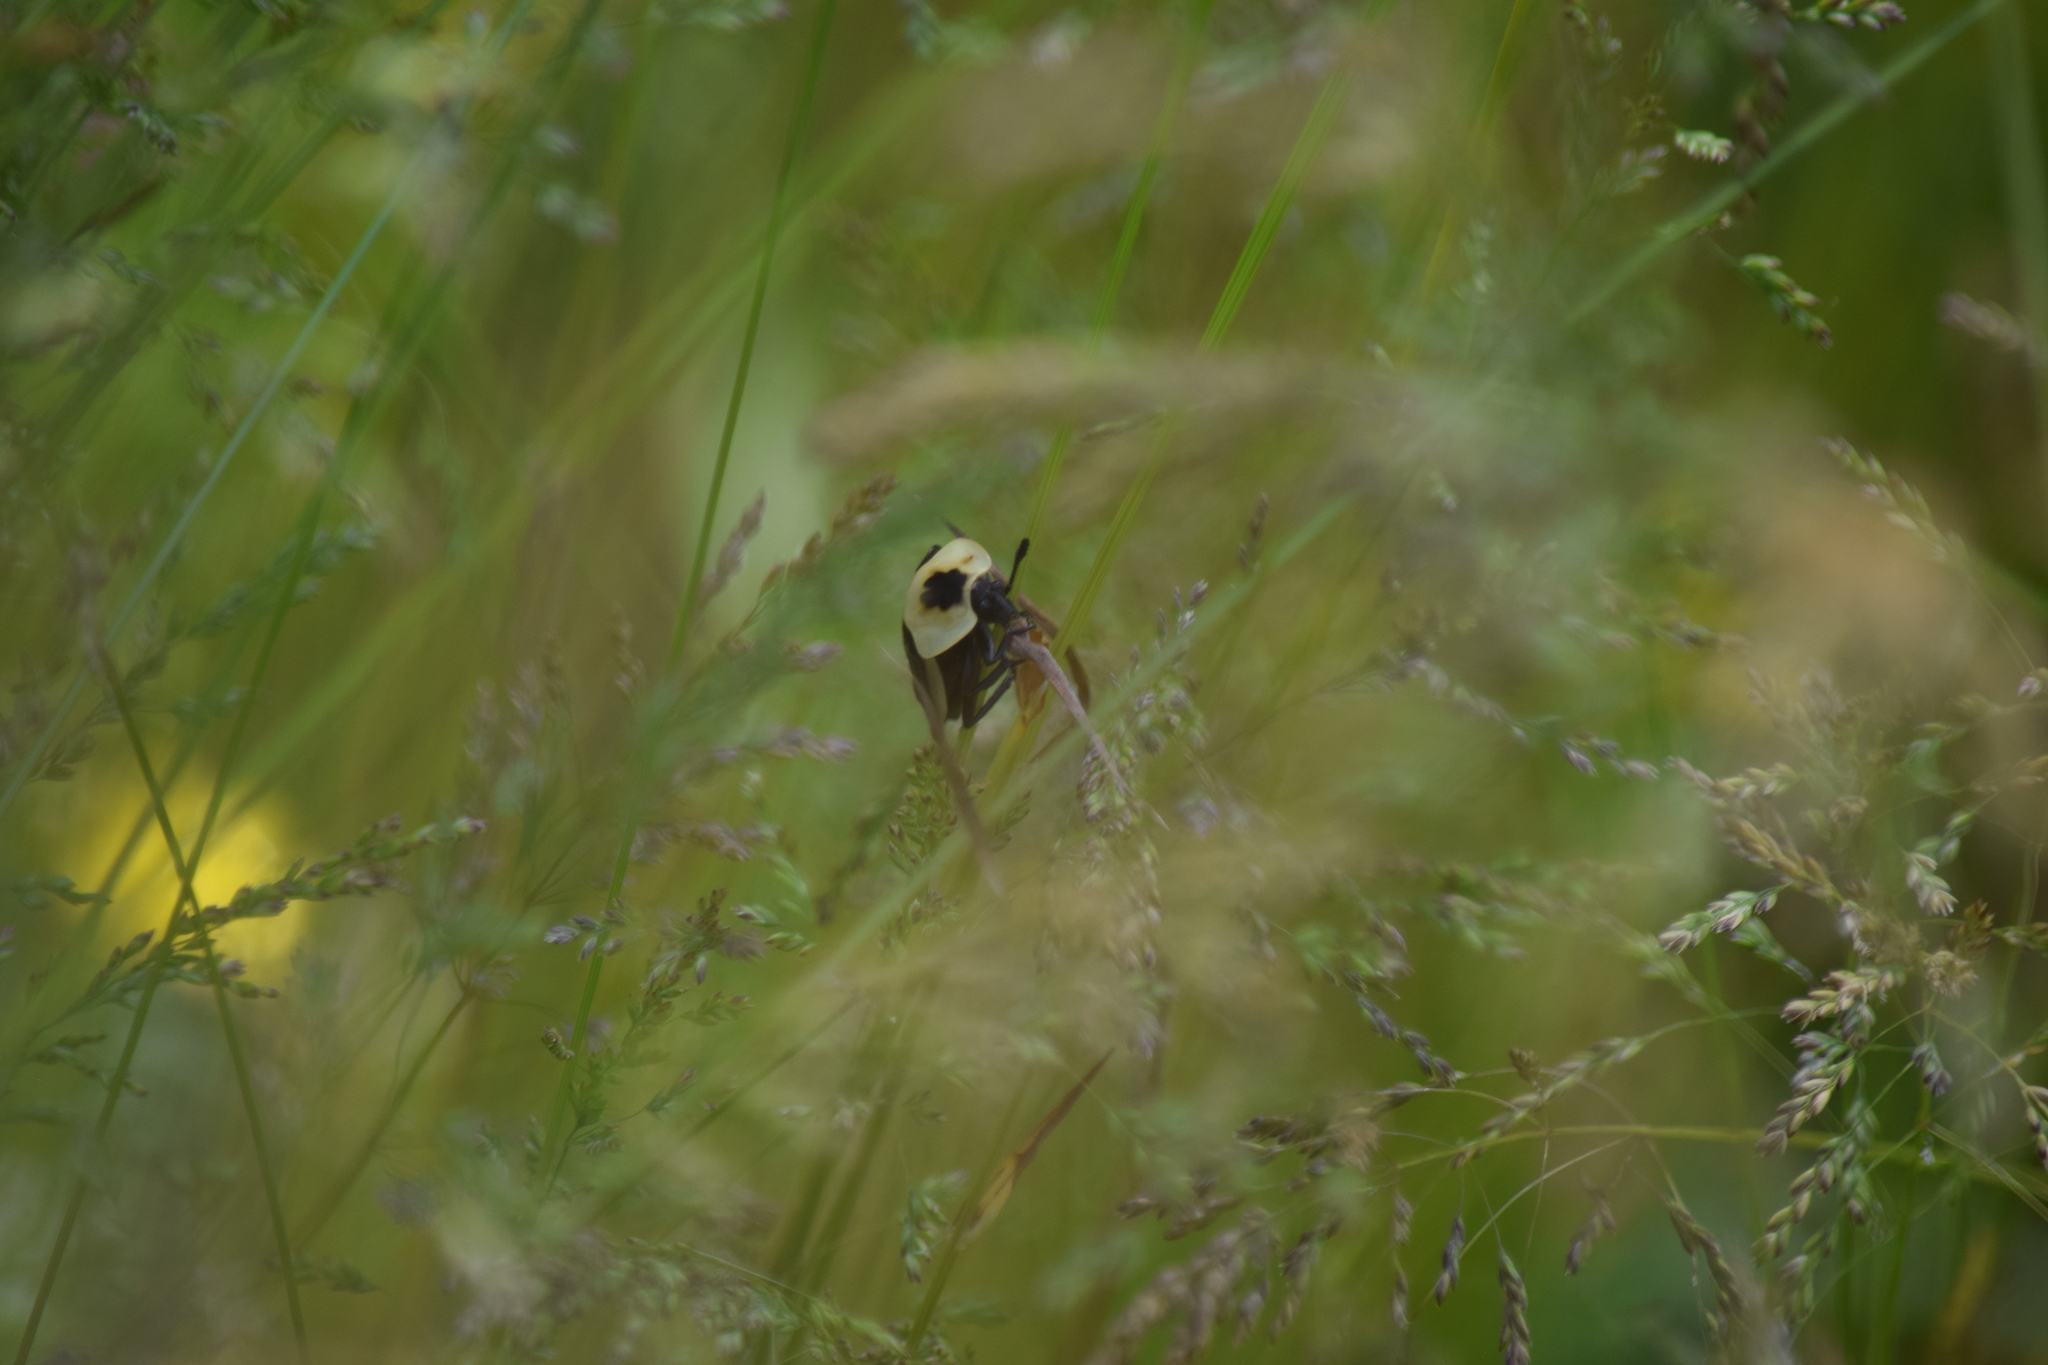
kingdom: Animalia
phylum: Arthropoda
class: Insecta
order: Coleoptera
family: Staphylinidae
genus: Necrophila
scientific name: Necrophila americana
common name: American carrion beetle
